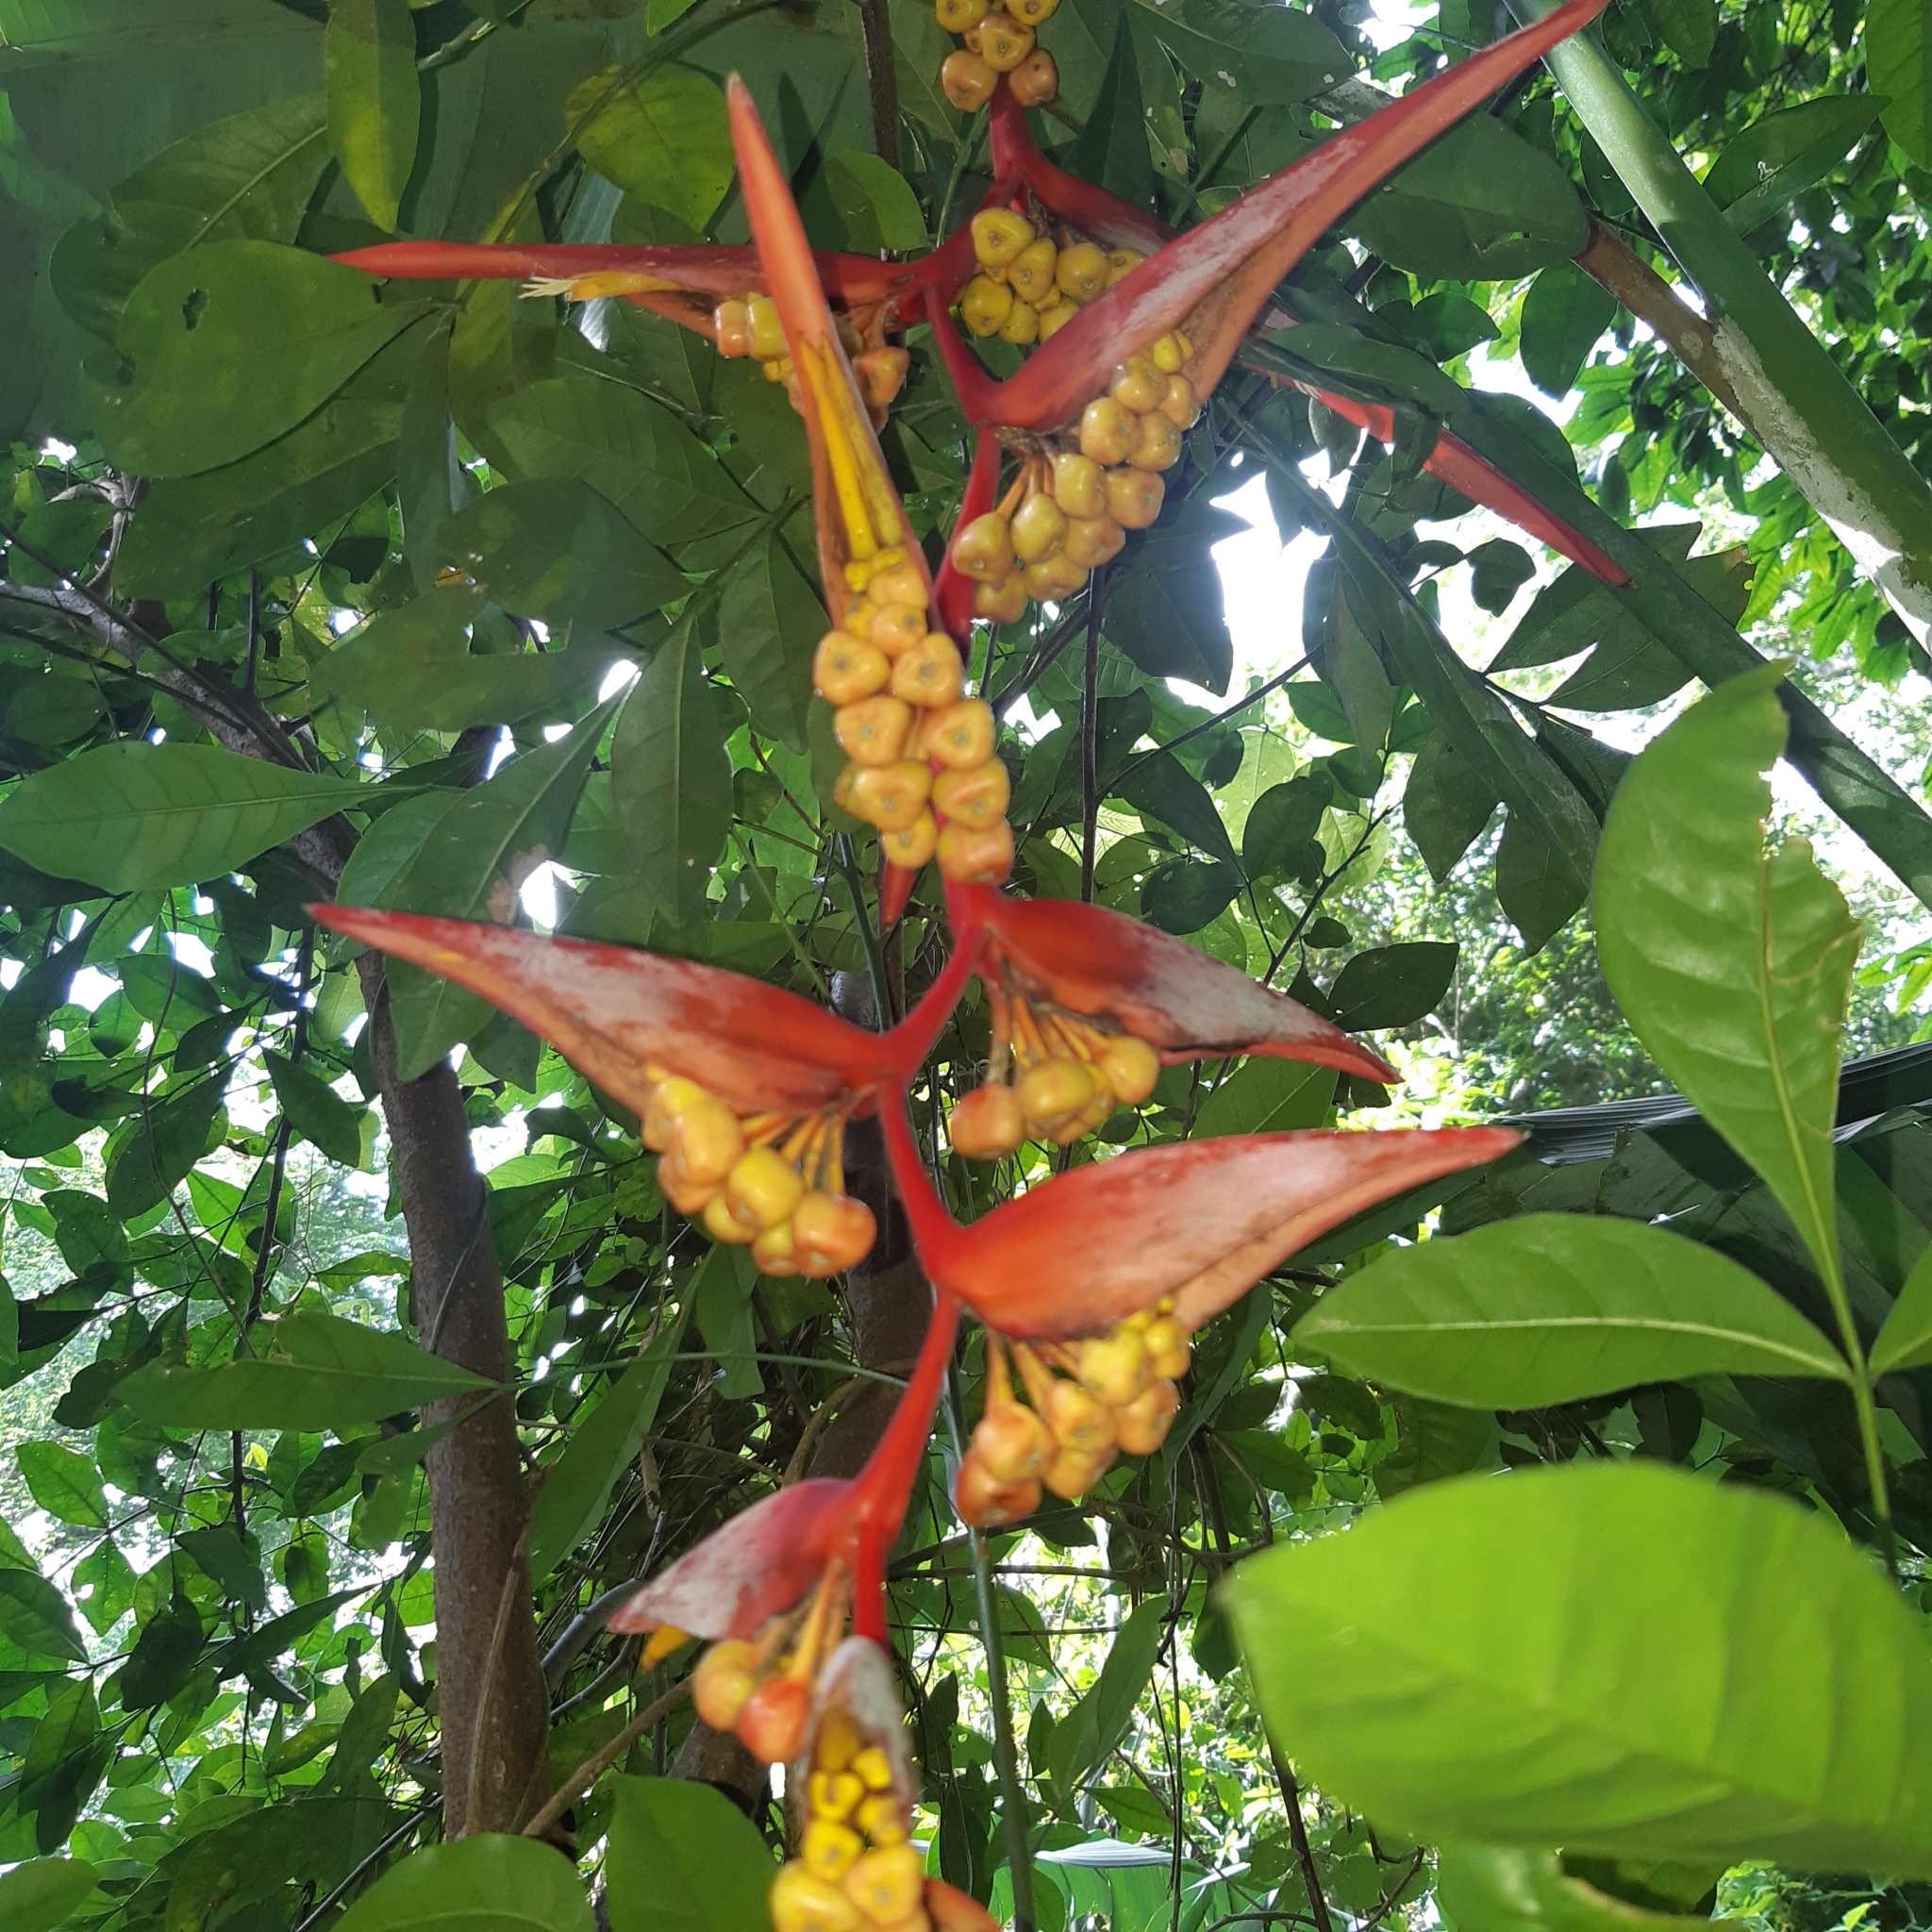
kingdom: Plantae
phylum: Tracheophyta
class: Liliopsida
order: Zingiberales
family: Heliconiaceae
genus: Heliconia
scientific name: Heliconia collinsiana
